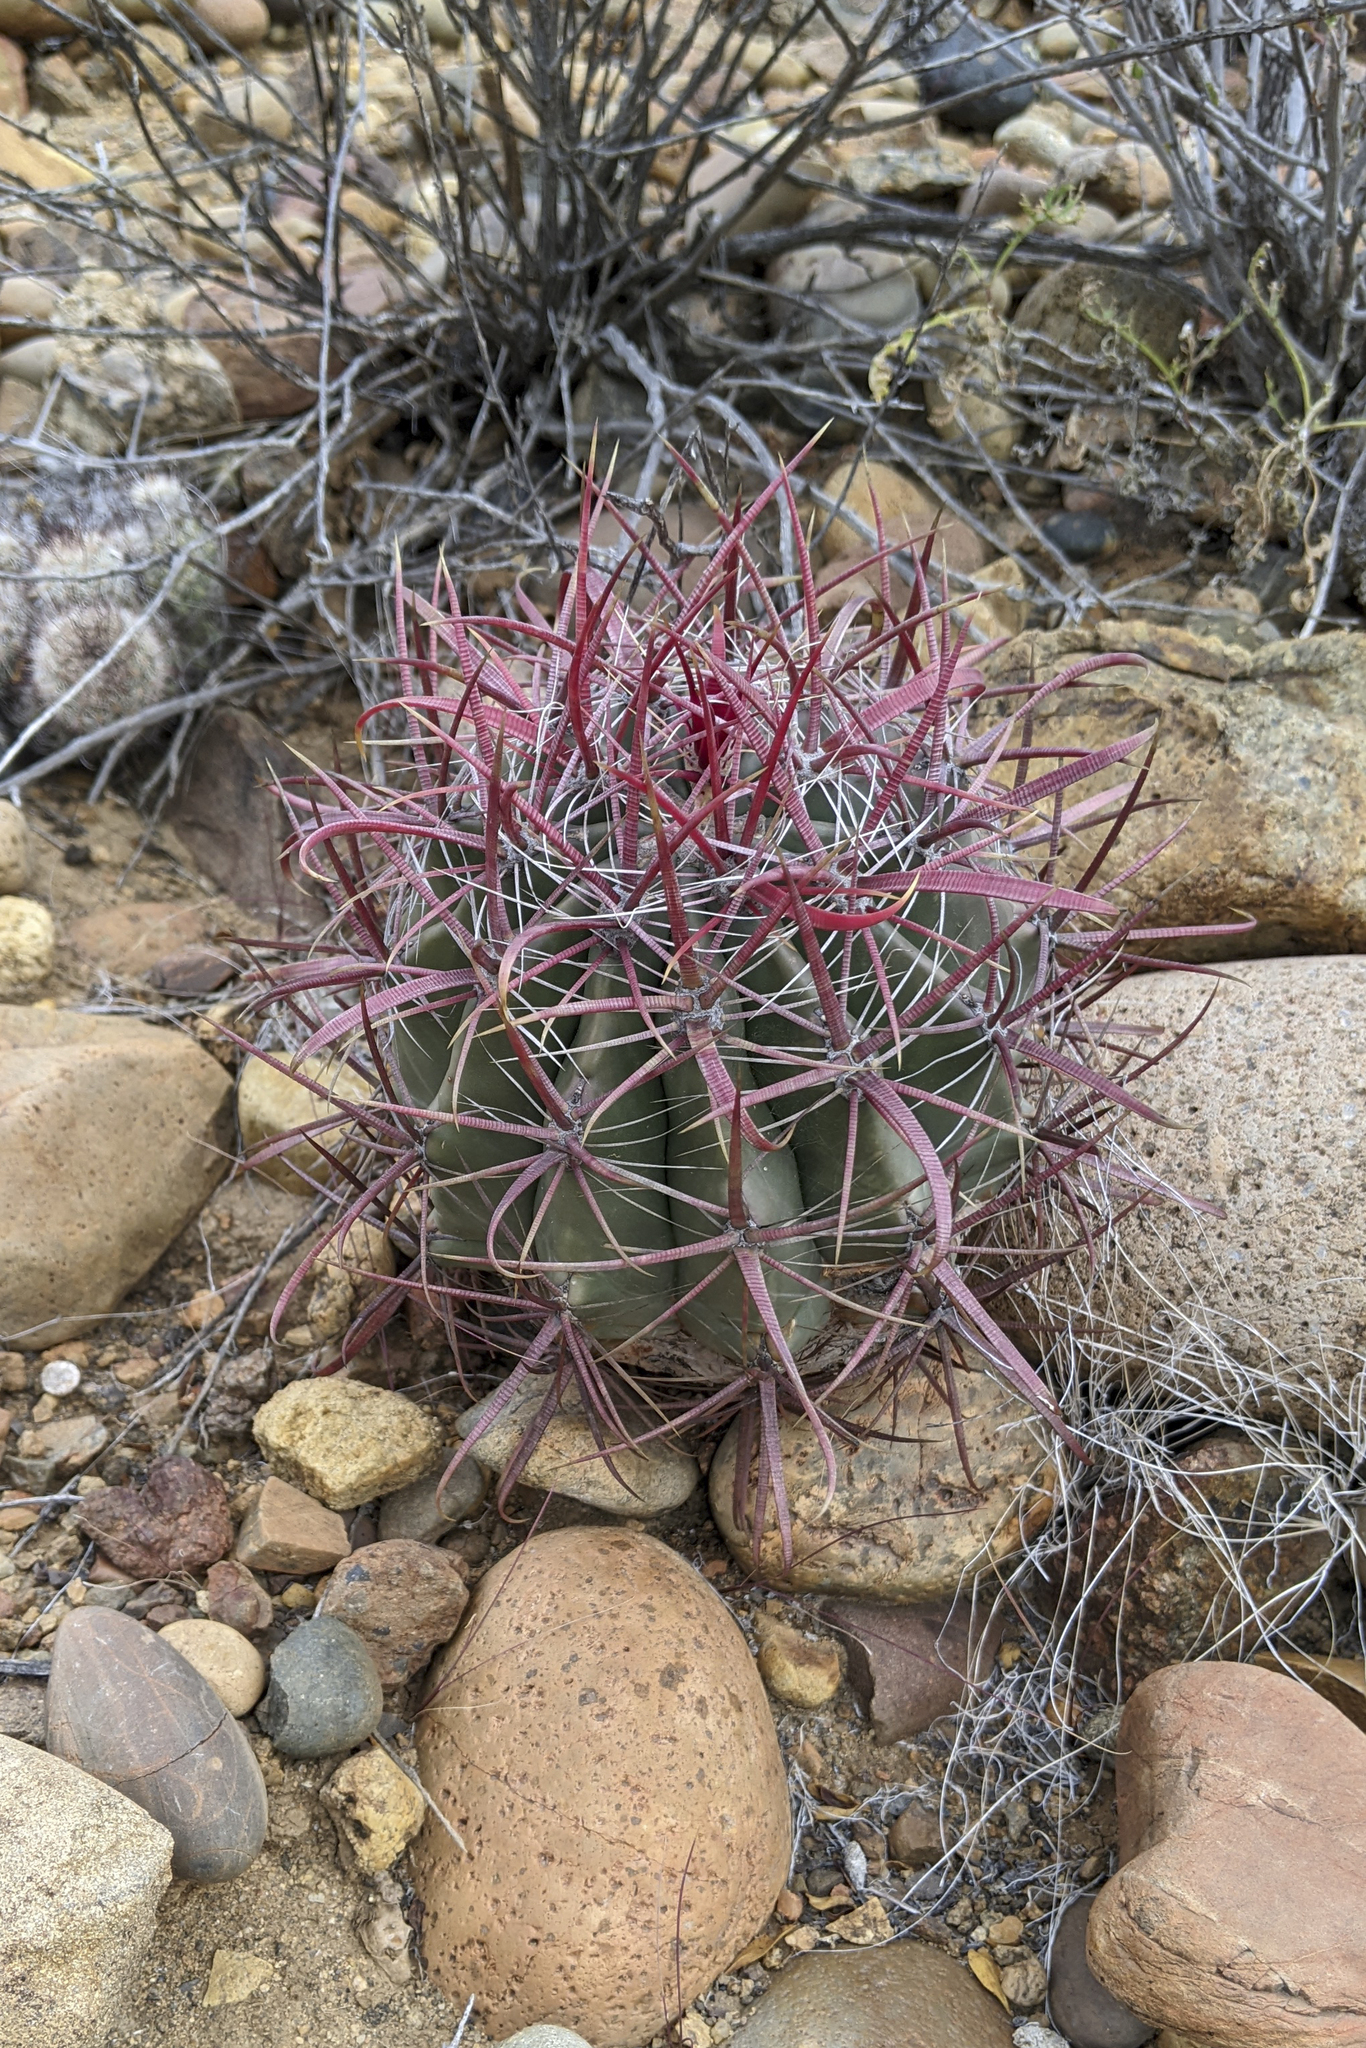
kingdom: Plantae
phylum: Tracheophyta
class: Magnoliopsida
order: Caryophyllales
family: Cactaceae
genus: Ferocactus
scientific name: Ferocactus gracilis
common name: Fire barrel cactus
